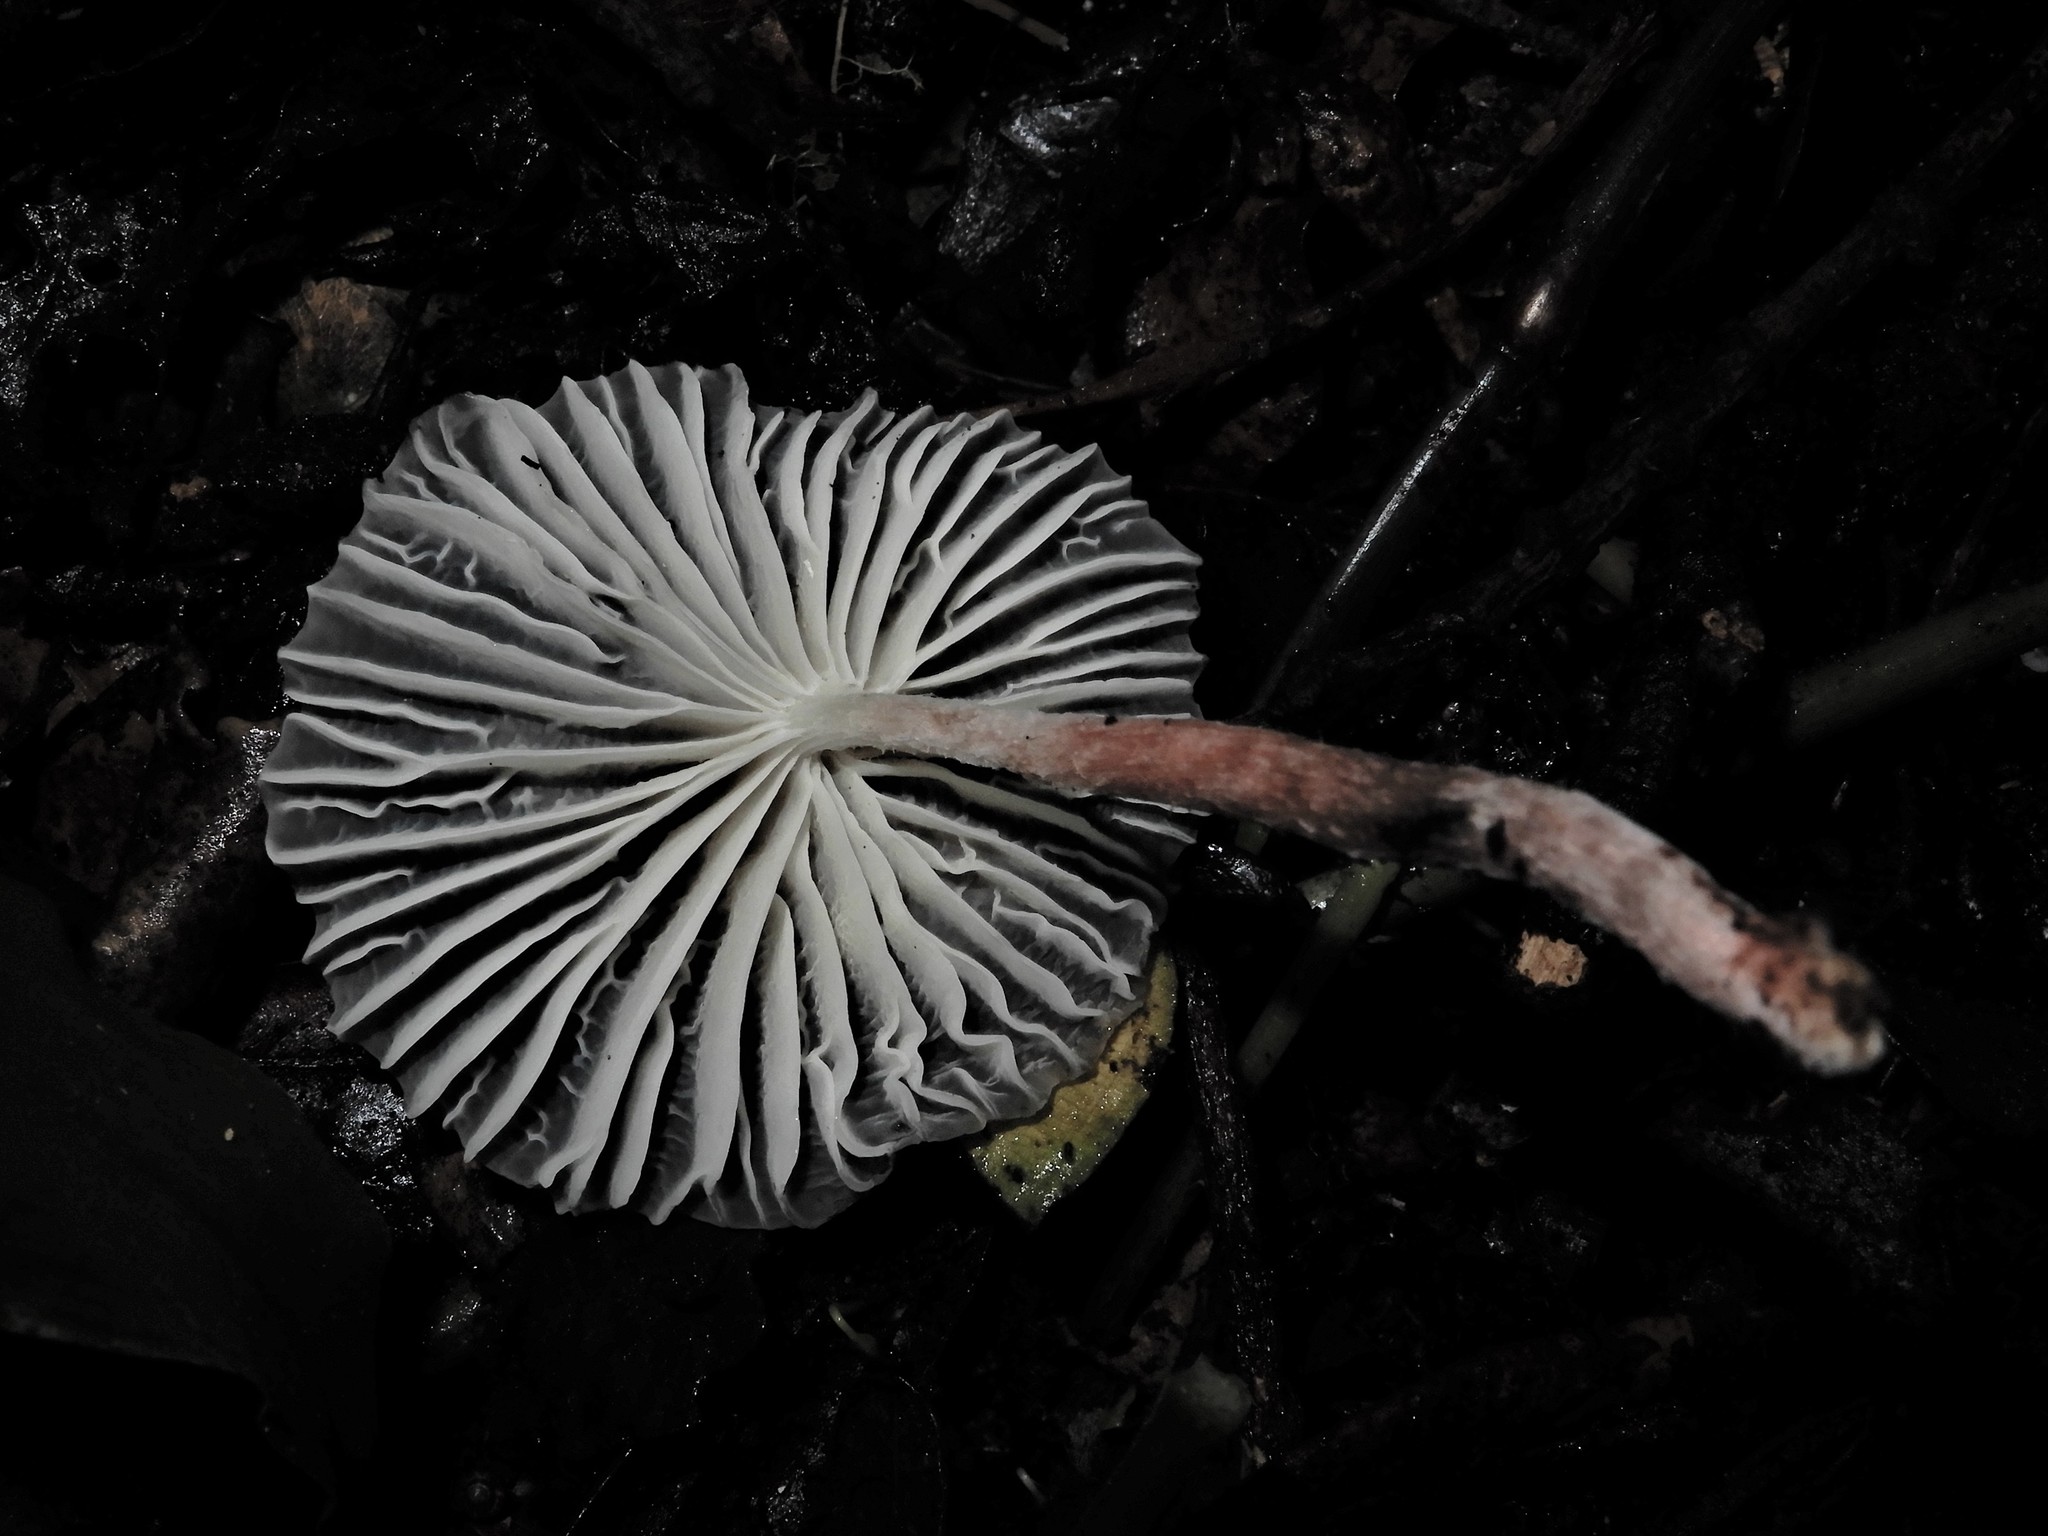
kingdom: Fungi
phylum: Basidiomycota
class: Agaricomycetes
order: Agaricales
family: Marasmiaceae
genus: Campanella
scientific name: Campanella
